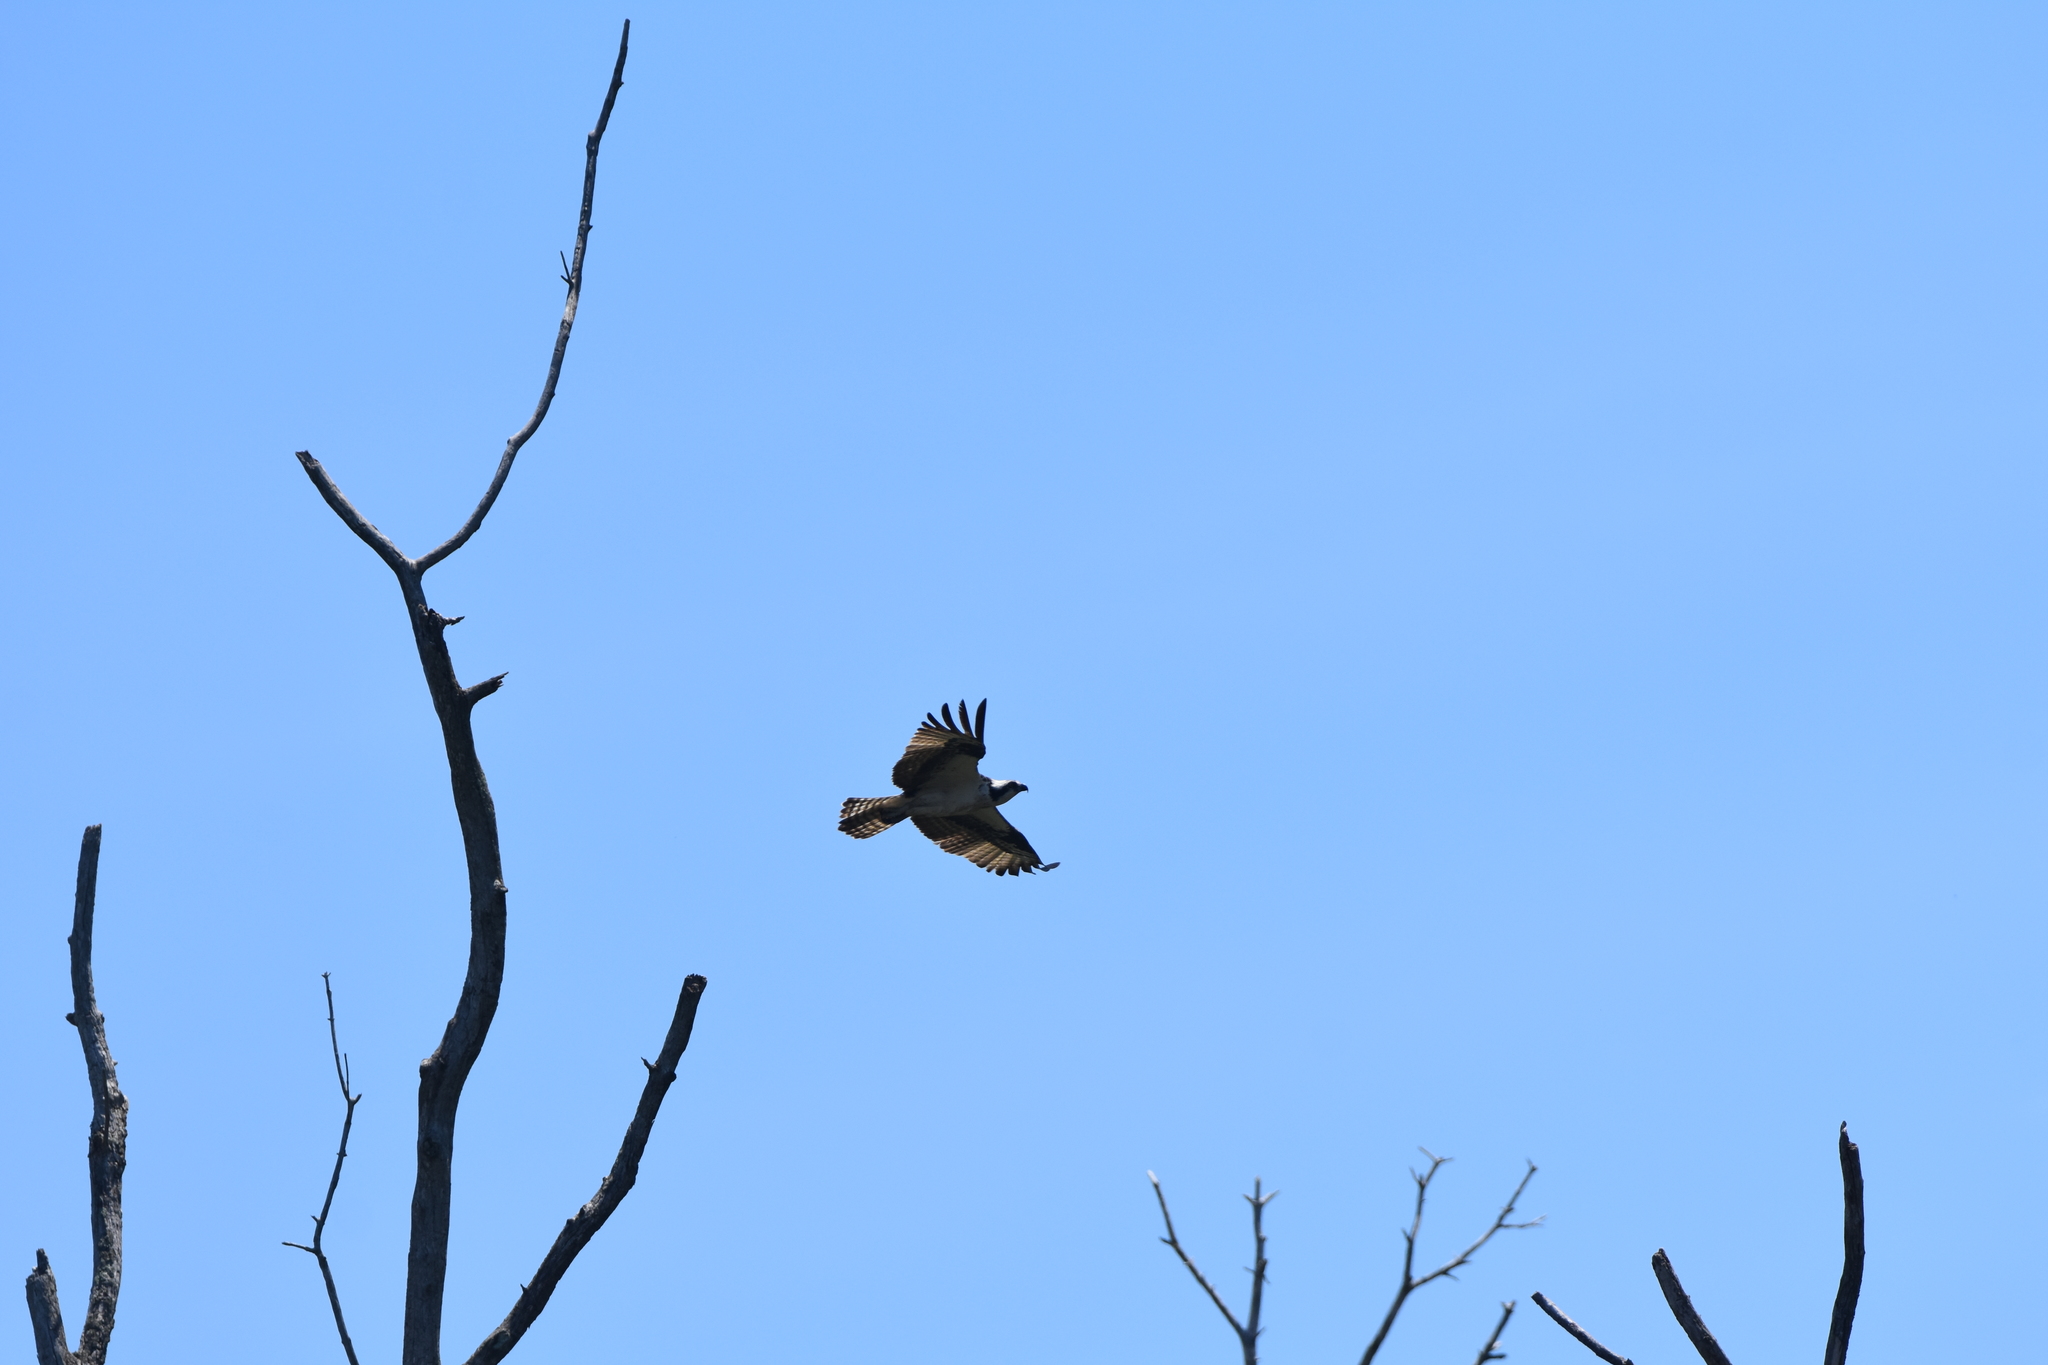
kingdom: Animalia
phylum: Chordata
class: Aves
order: Accipitriformes
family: Pandionidae
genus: Pandion
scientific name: Pandion haliaetus
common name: Osprey
